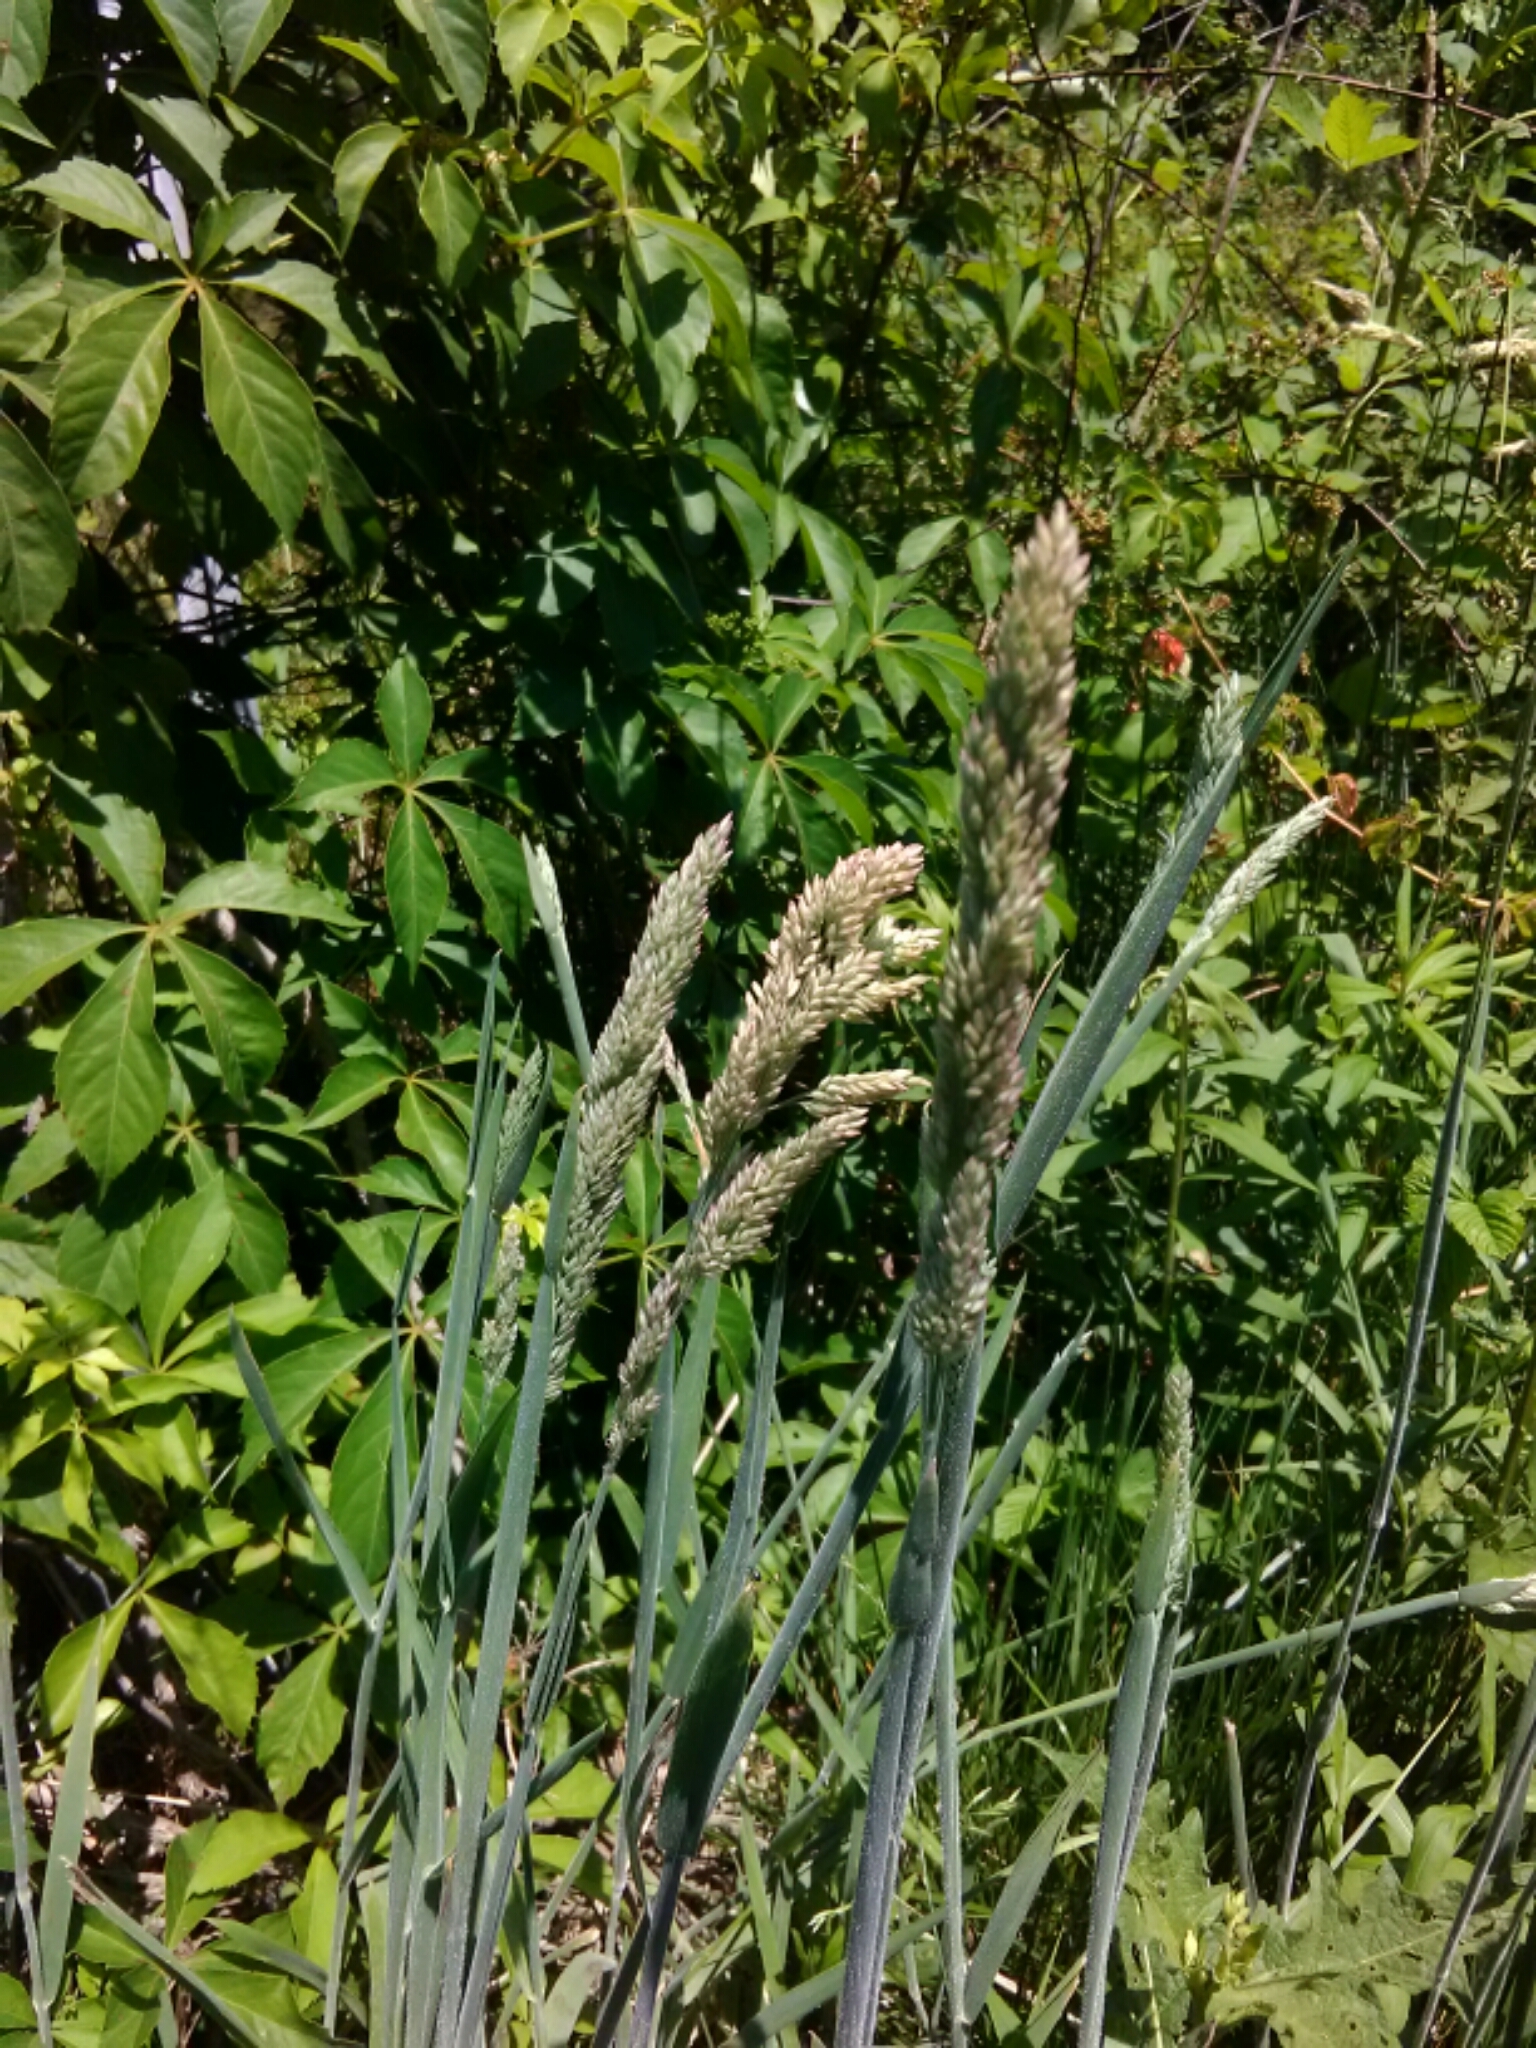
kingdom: Plantae
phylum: Tracheophyta
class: Liliopsida
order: Poales
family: Poaceae
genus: Holcus
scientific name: Holcus lanatus
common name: Yorkshire-fog
